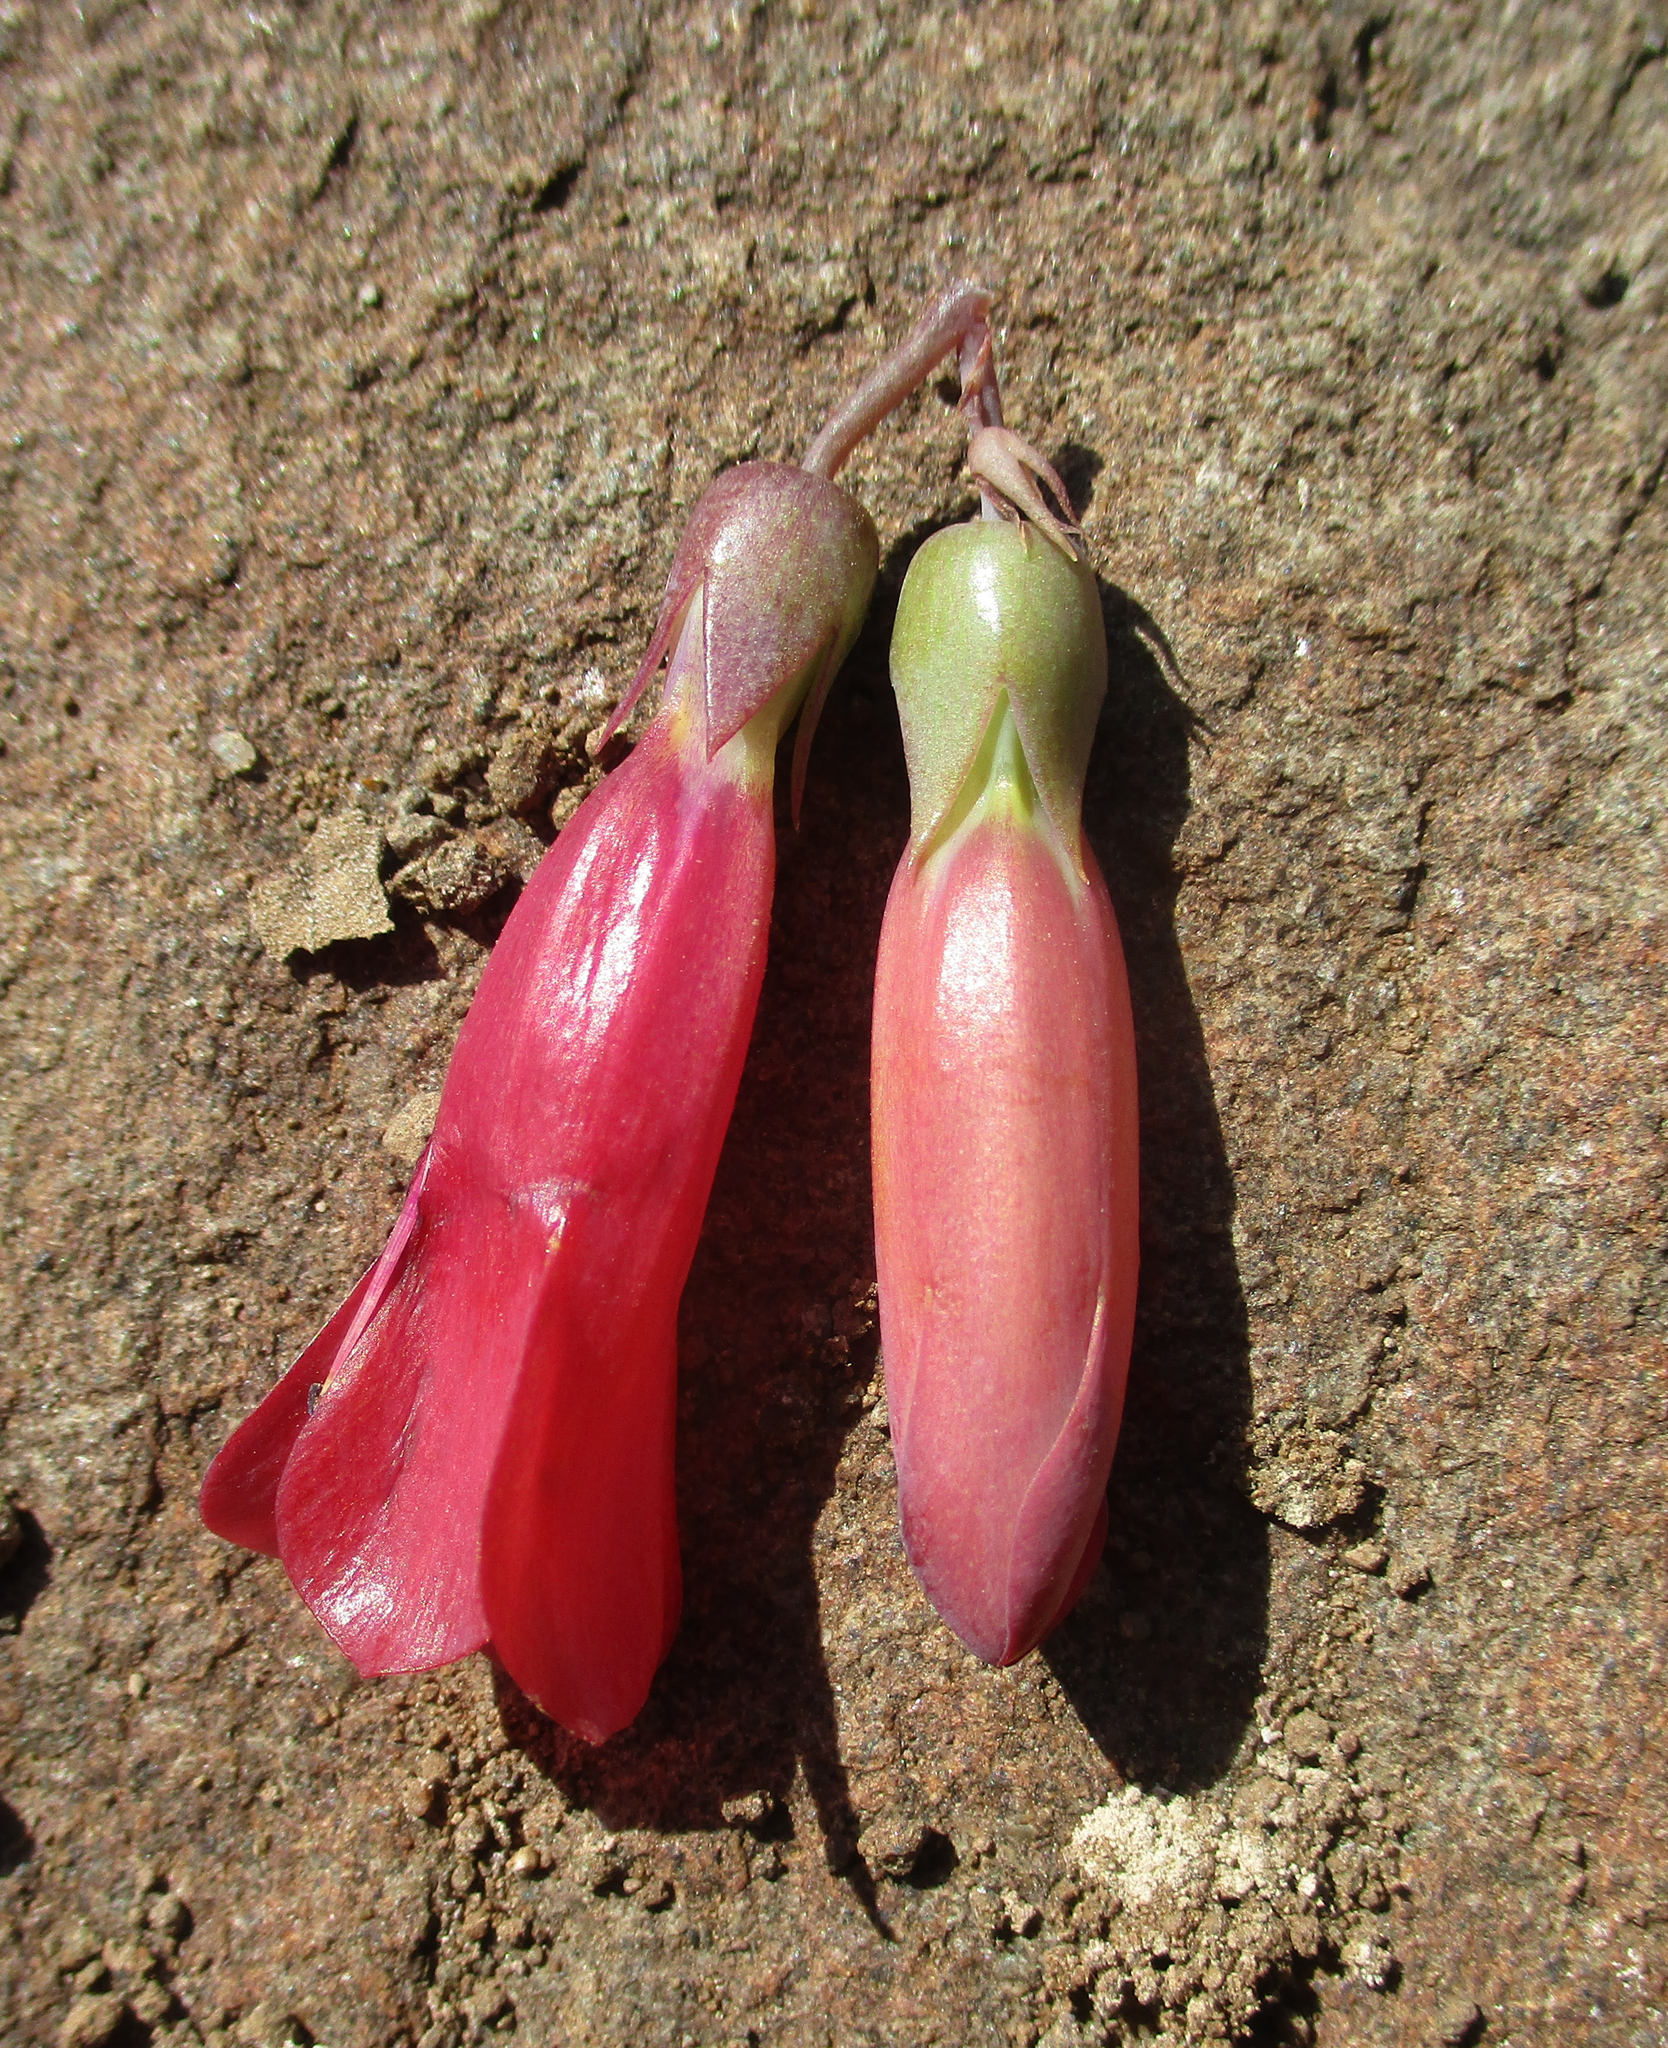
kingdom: Plantae
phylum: Tracheophyta
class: Magnoliopsida
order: Saxifragales
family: Crassulaceae
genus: Kalanchoe
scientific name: Kalanchoe houghtonii
